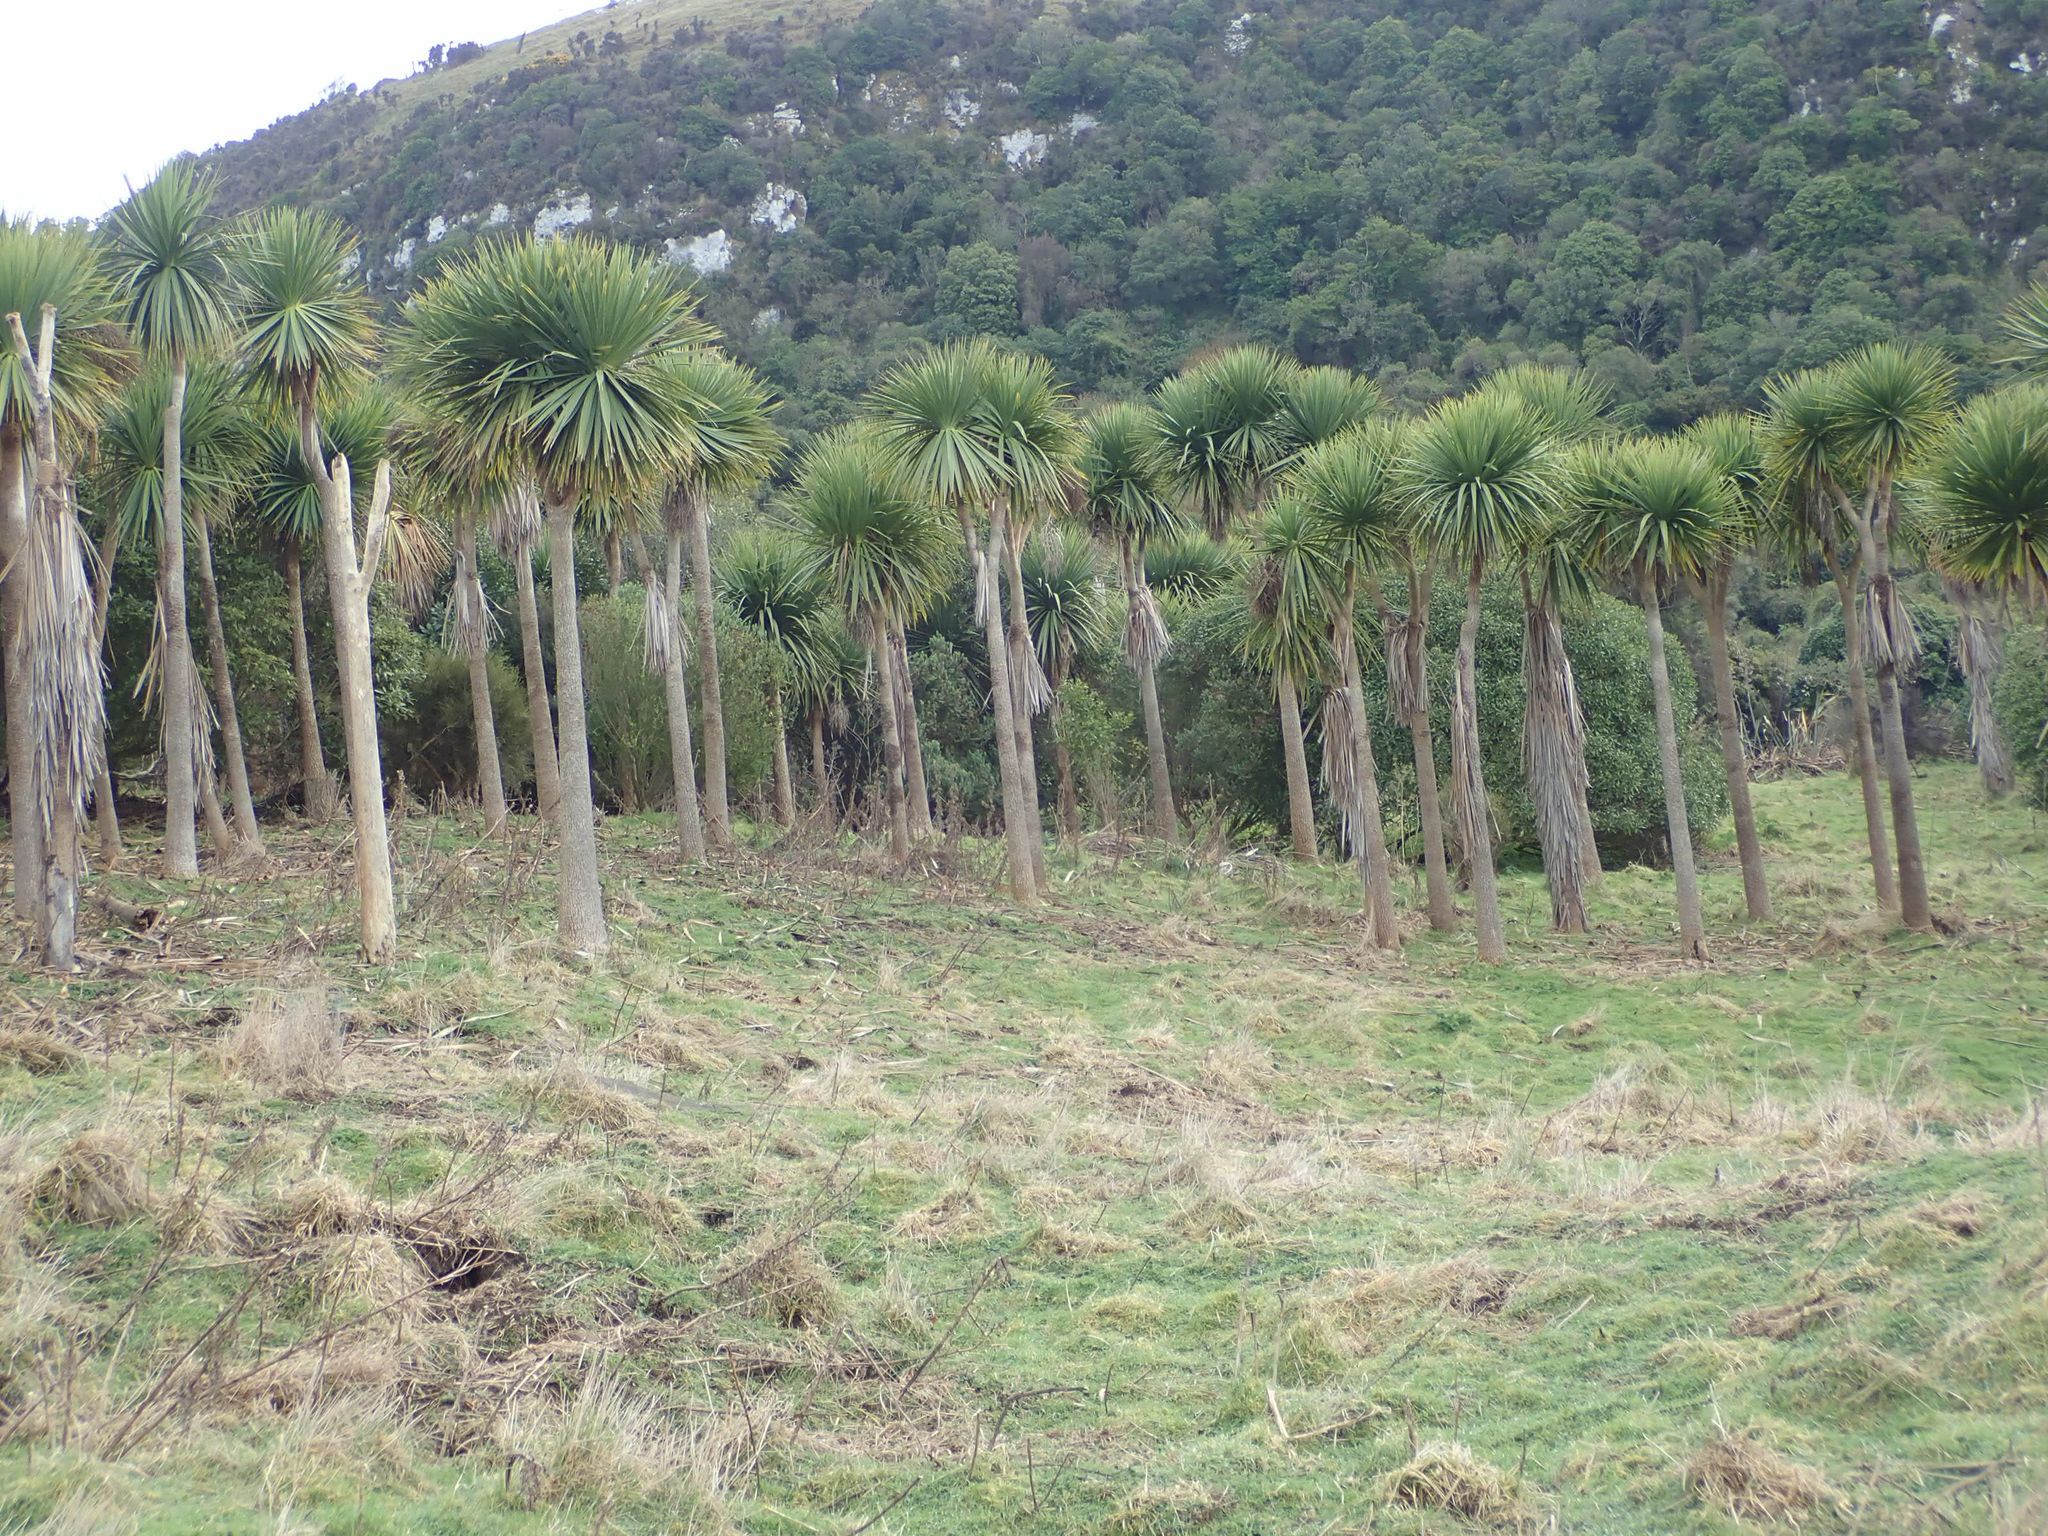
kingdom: Plantae
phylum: Tracheophyta
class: Liliopsida
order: Asparagales
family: Asparagaceae
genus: Cordyline
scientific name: Cordyline australis
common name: Cabbage-palm
